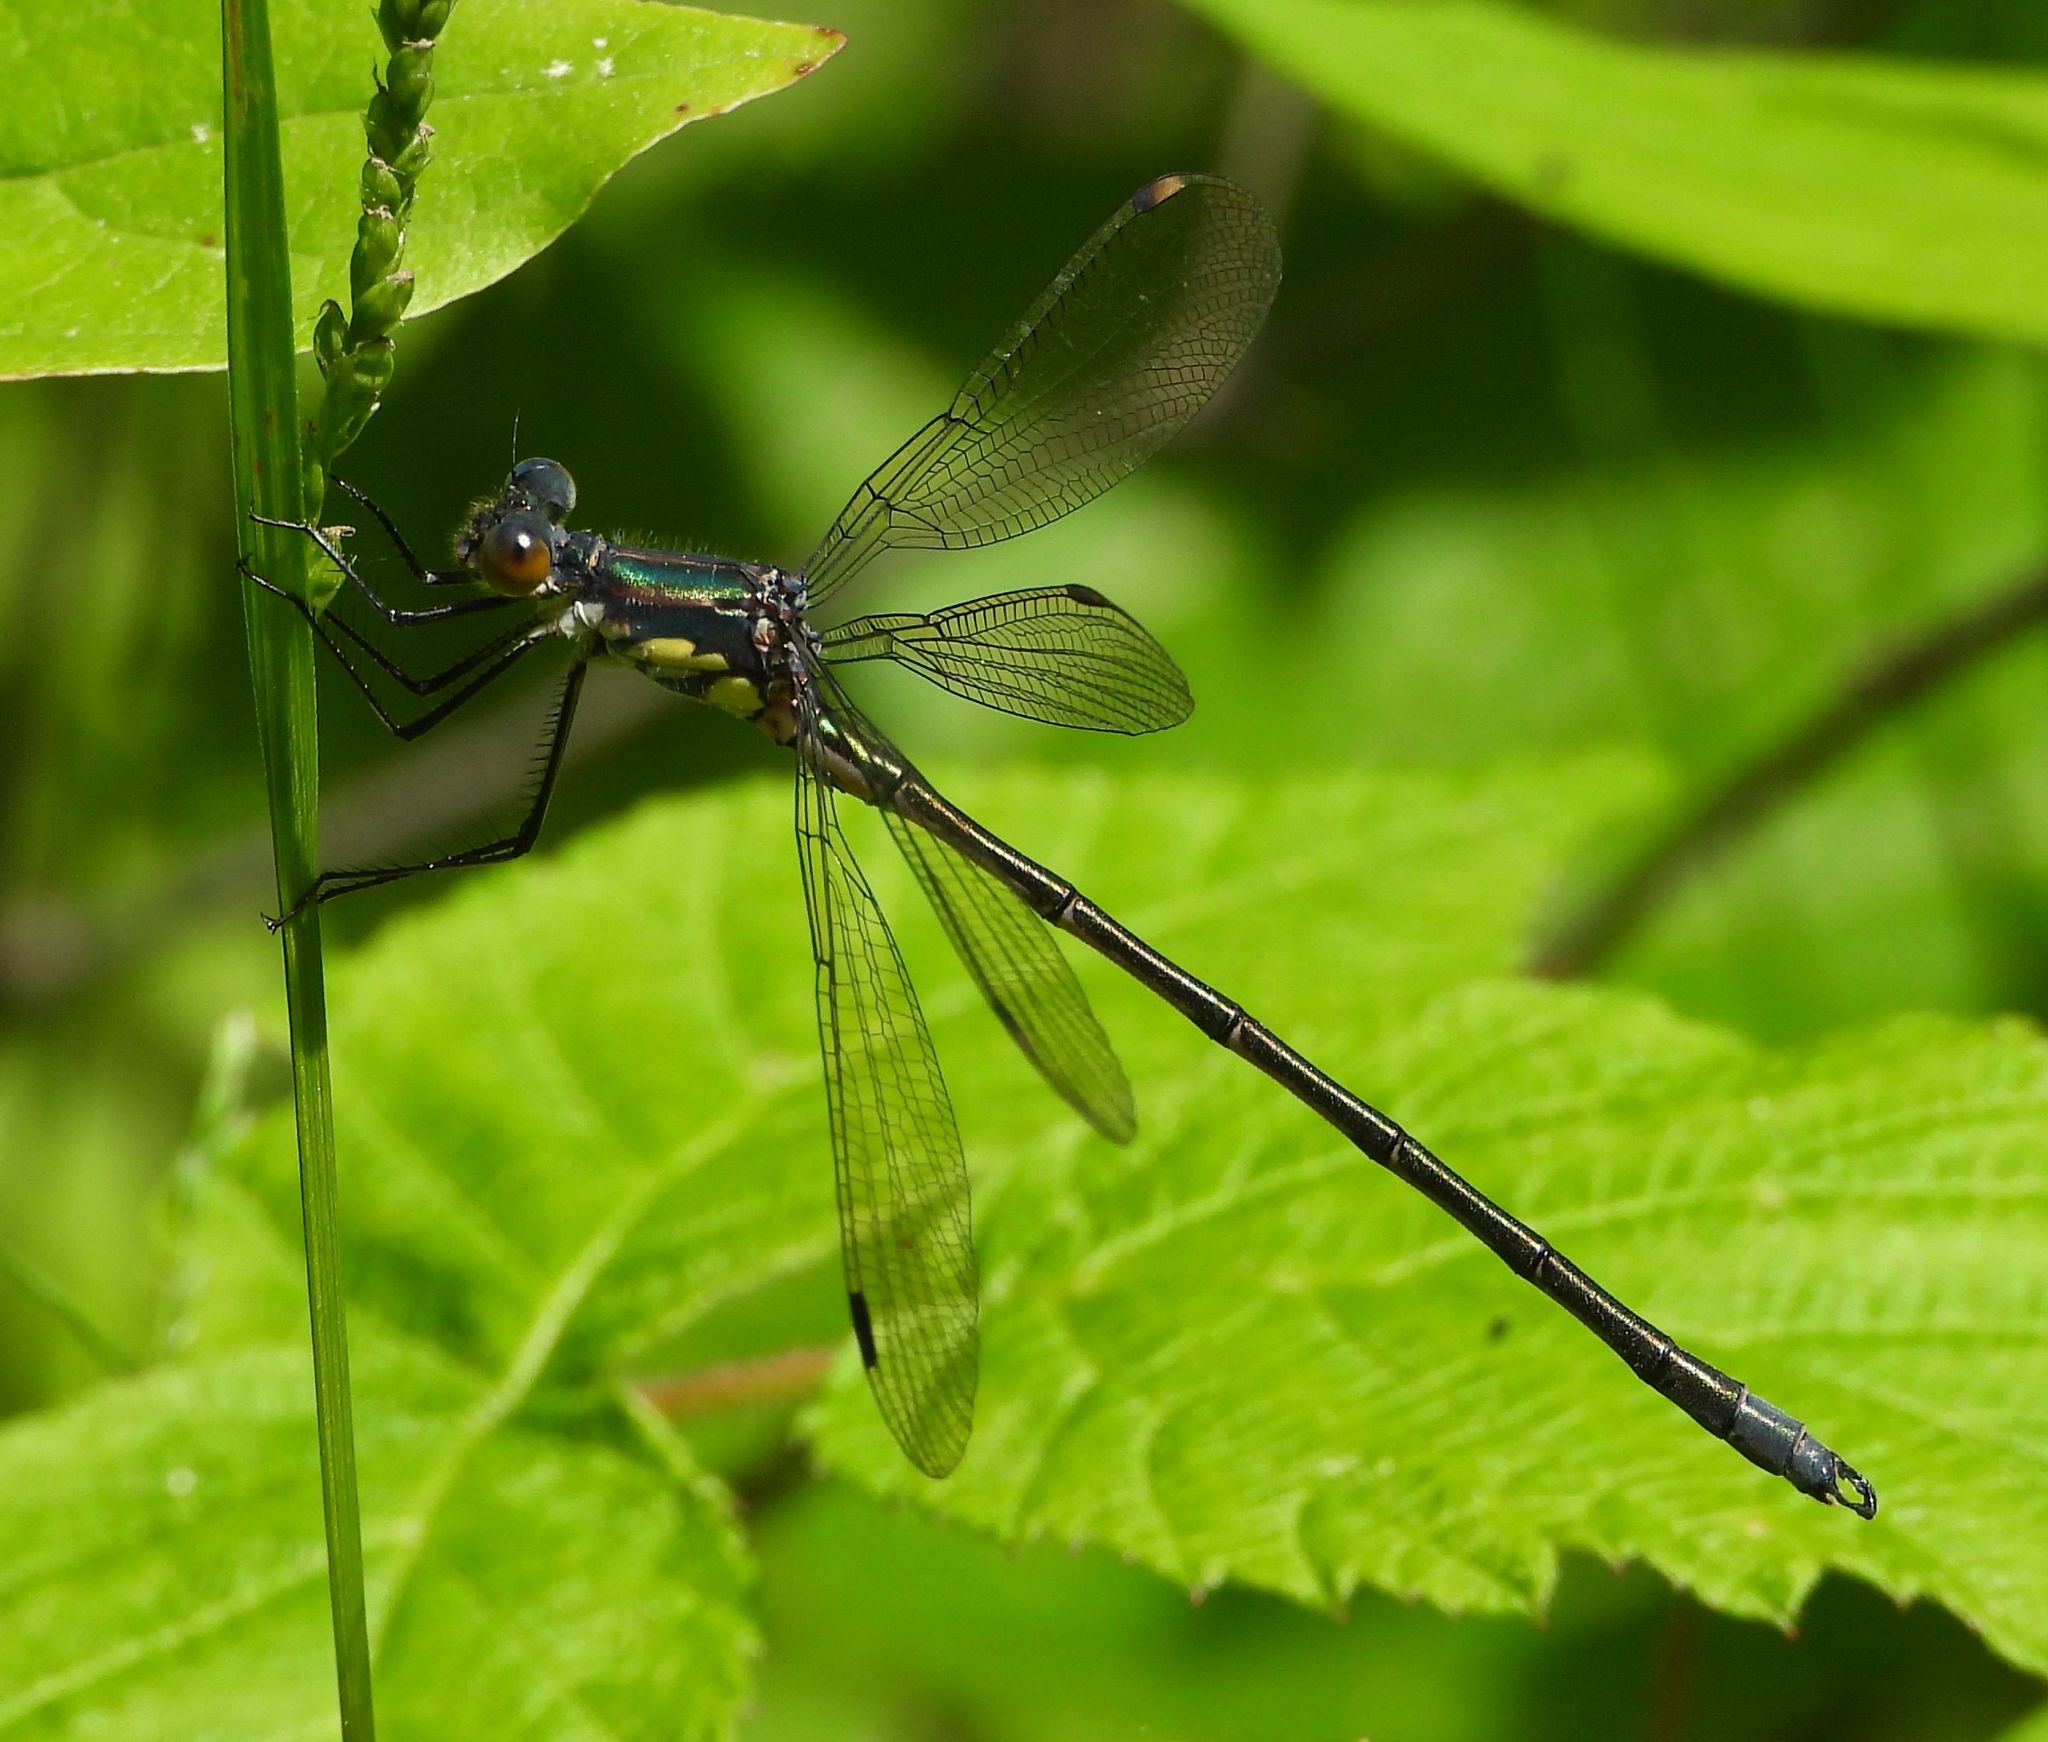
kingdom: Animalia
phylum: Arthropoda
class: Insecta
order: Odonata
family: Lestidae
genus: Lestes
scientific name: Lestes eurinus
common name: Amber-winged spreadwing
